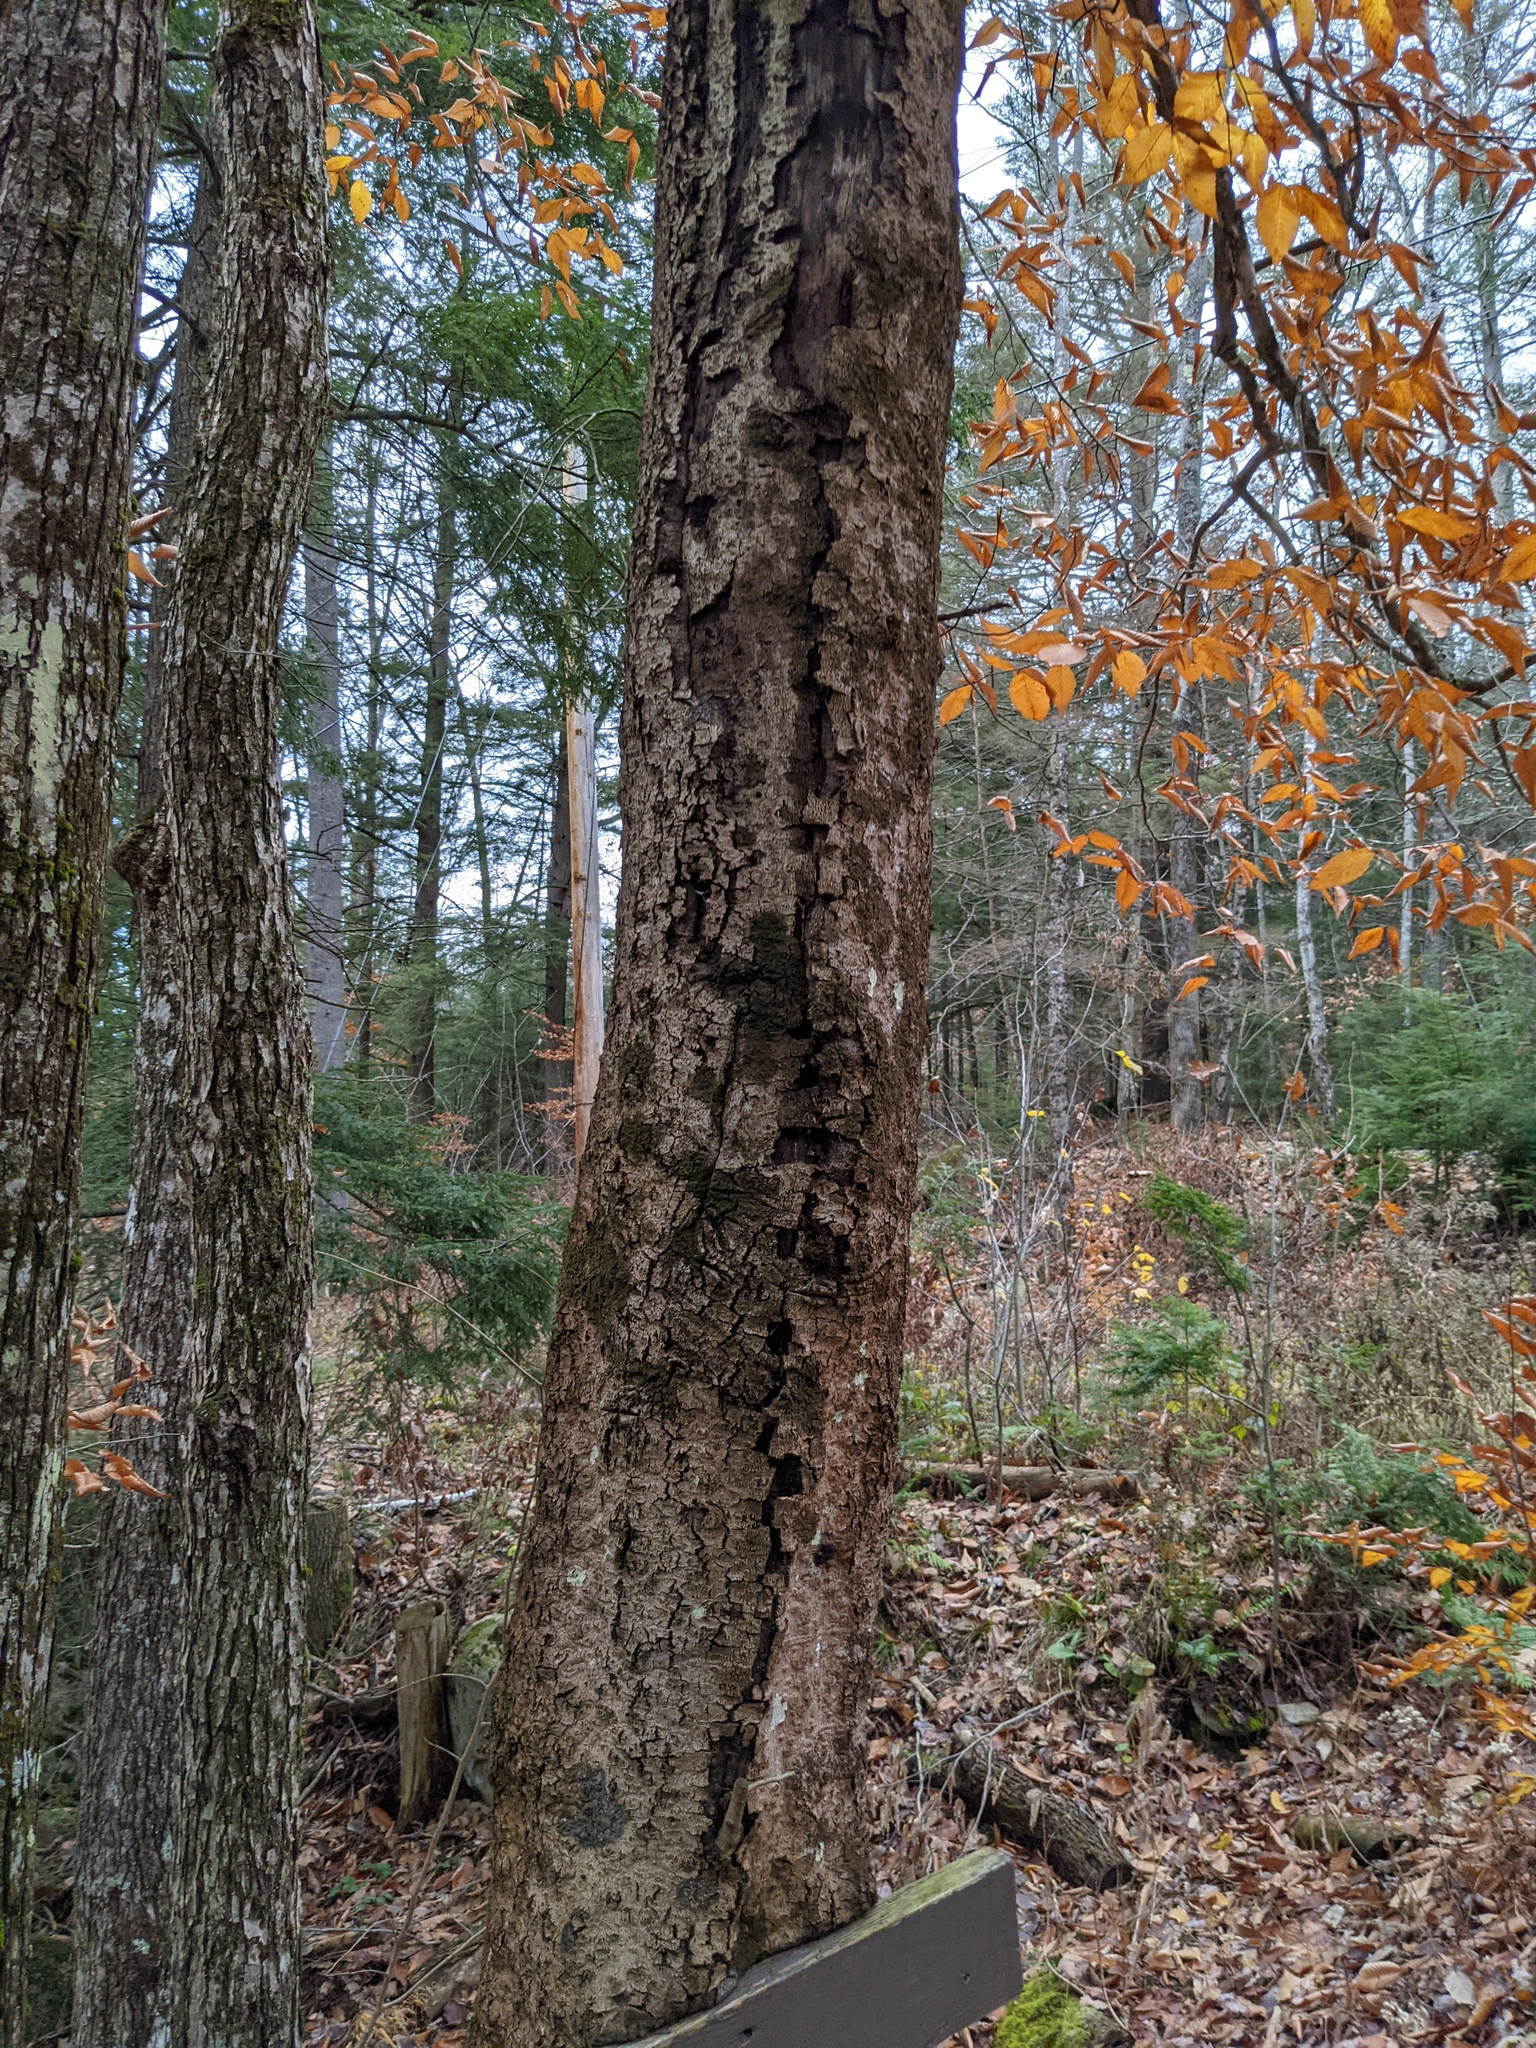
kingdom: Plantae
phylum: Tracheophyta
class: Magnoliopsida
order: Fagales
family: Fagaceae
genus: Fagus
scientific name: Fagus grandifolia
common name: American beech
